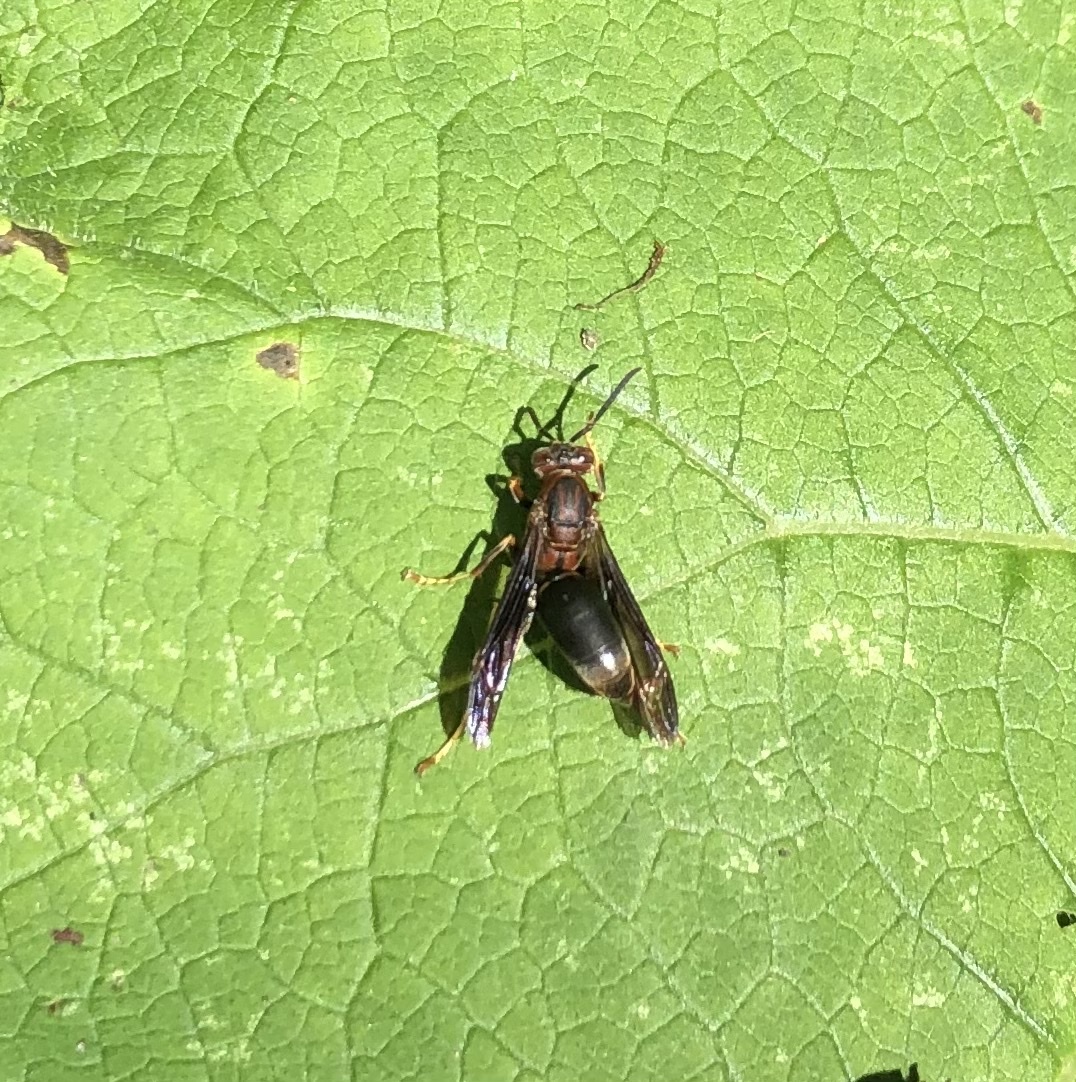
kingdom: Animalia
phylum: Arthropoda
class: Insecta
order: Hymenoptera
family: Eumenidae
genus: Polistes
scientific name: Polistes metricus
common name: Metric paper wasp
